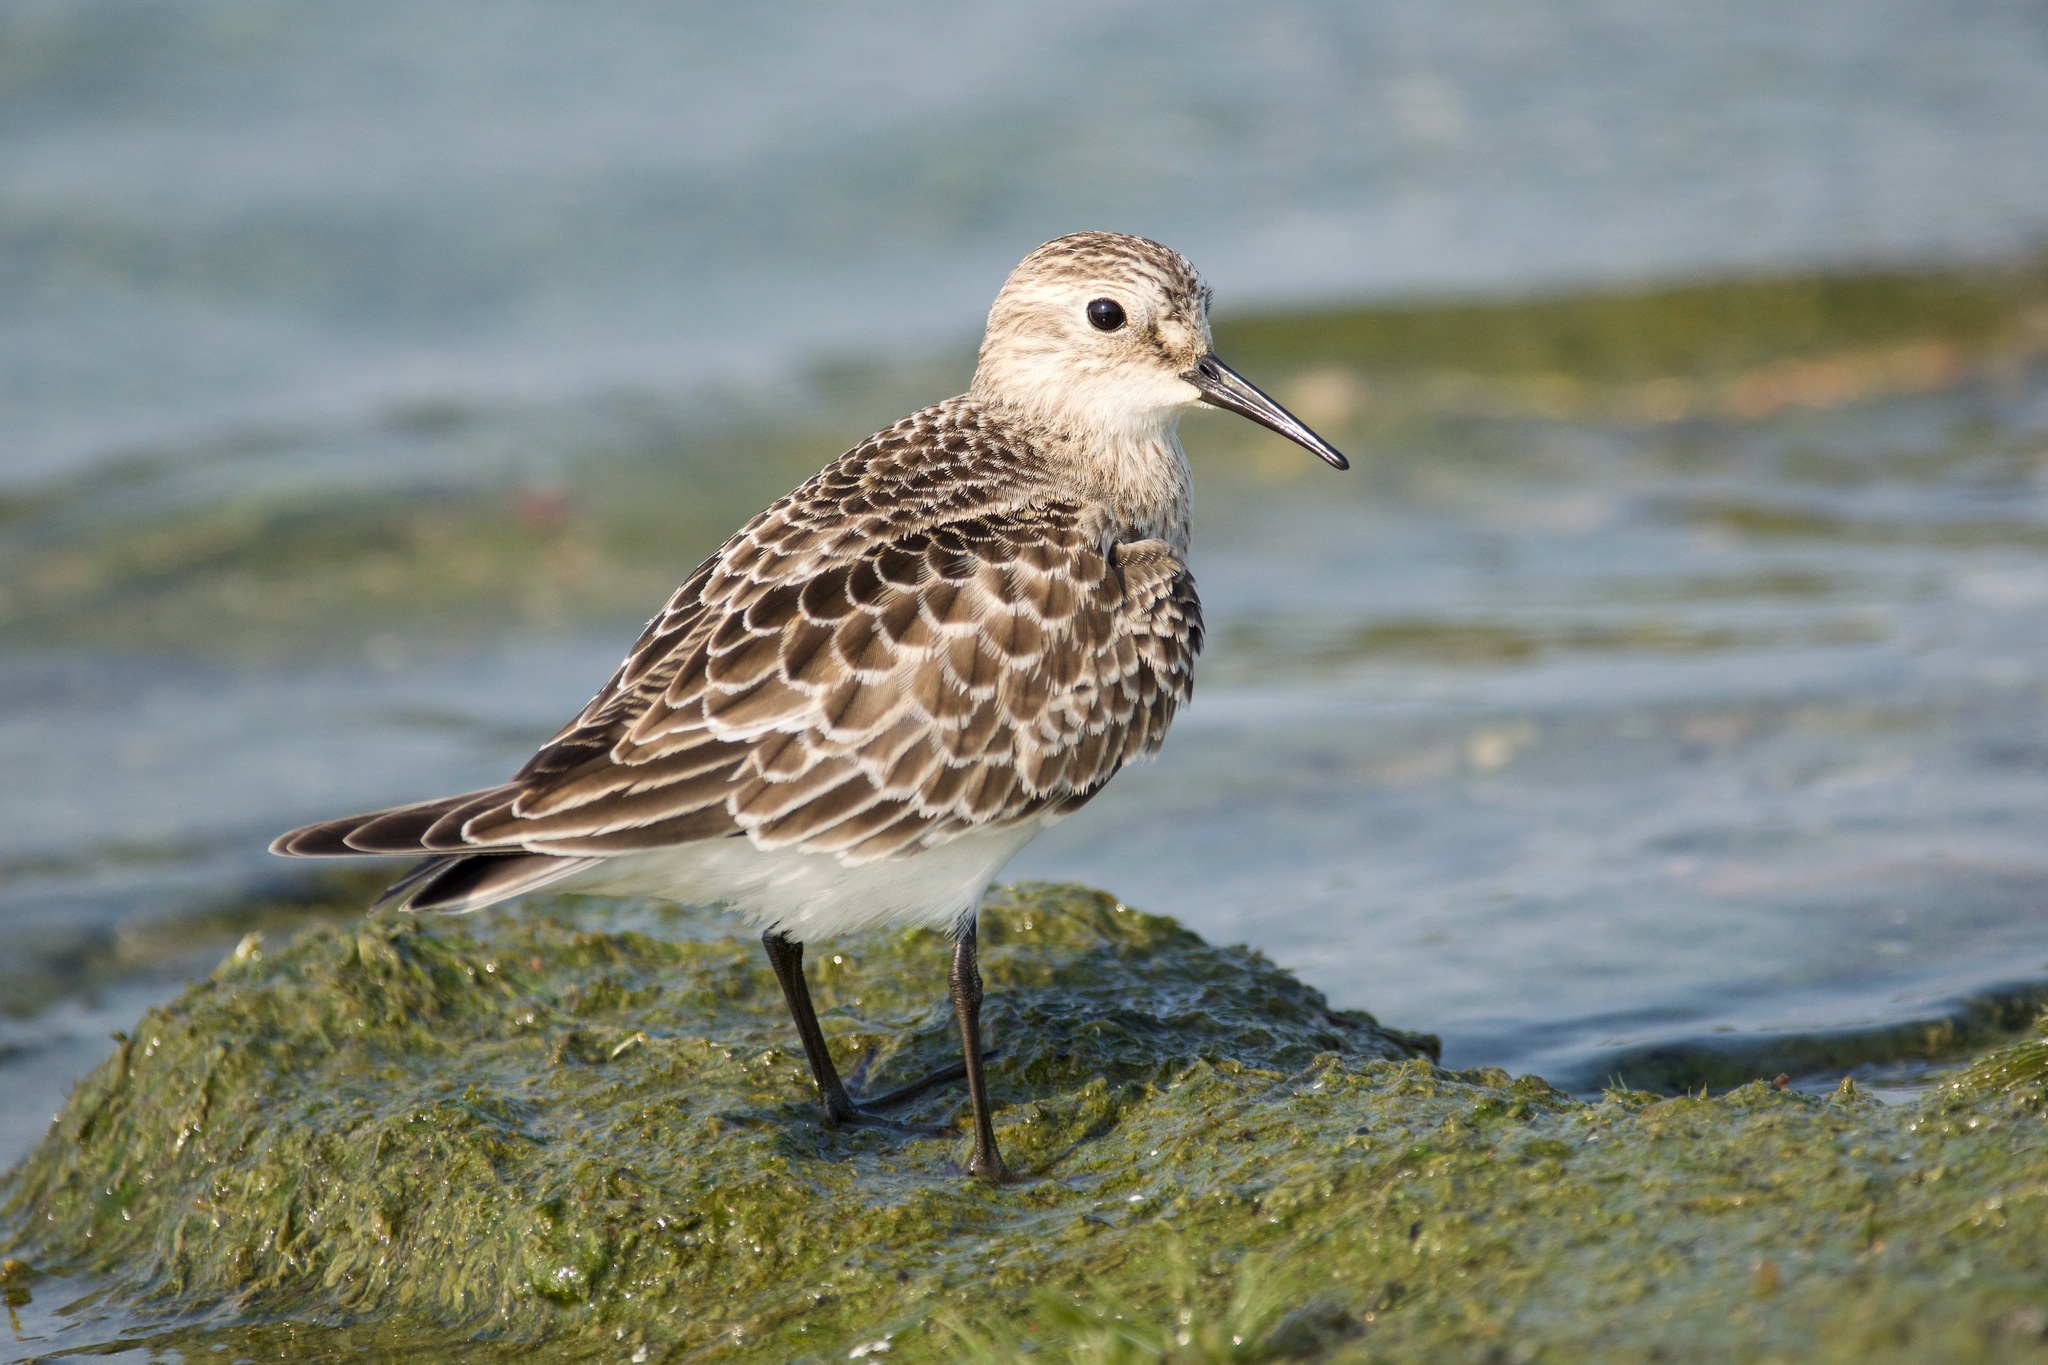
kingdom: Animalia
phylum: Chordata
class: Aves
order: Charadriiformes
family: Scolopacidae
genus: Calidris
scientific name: Calidris bairdii
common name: Baird's sandpiper
